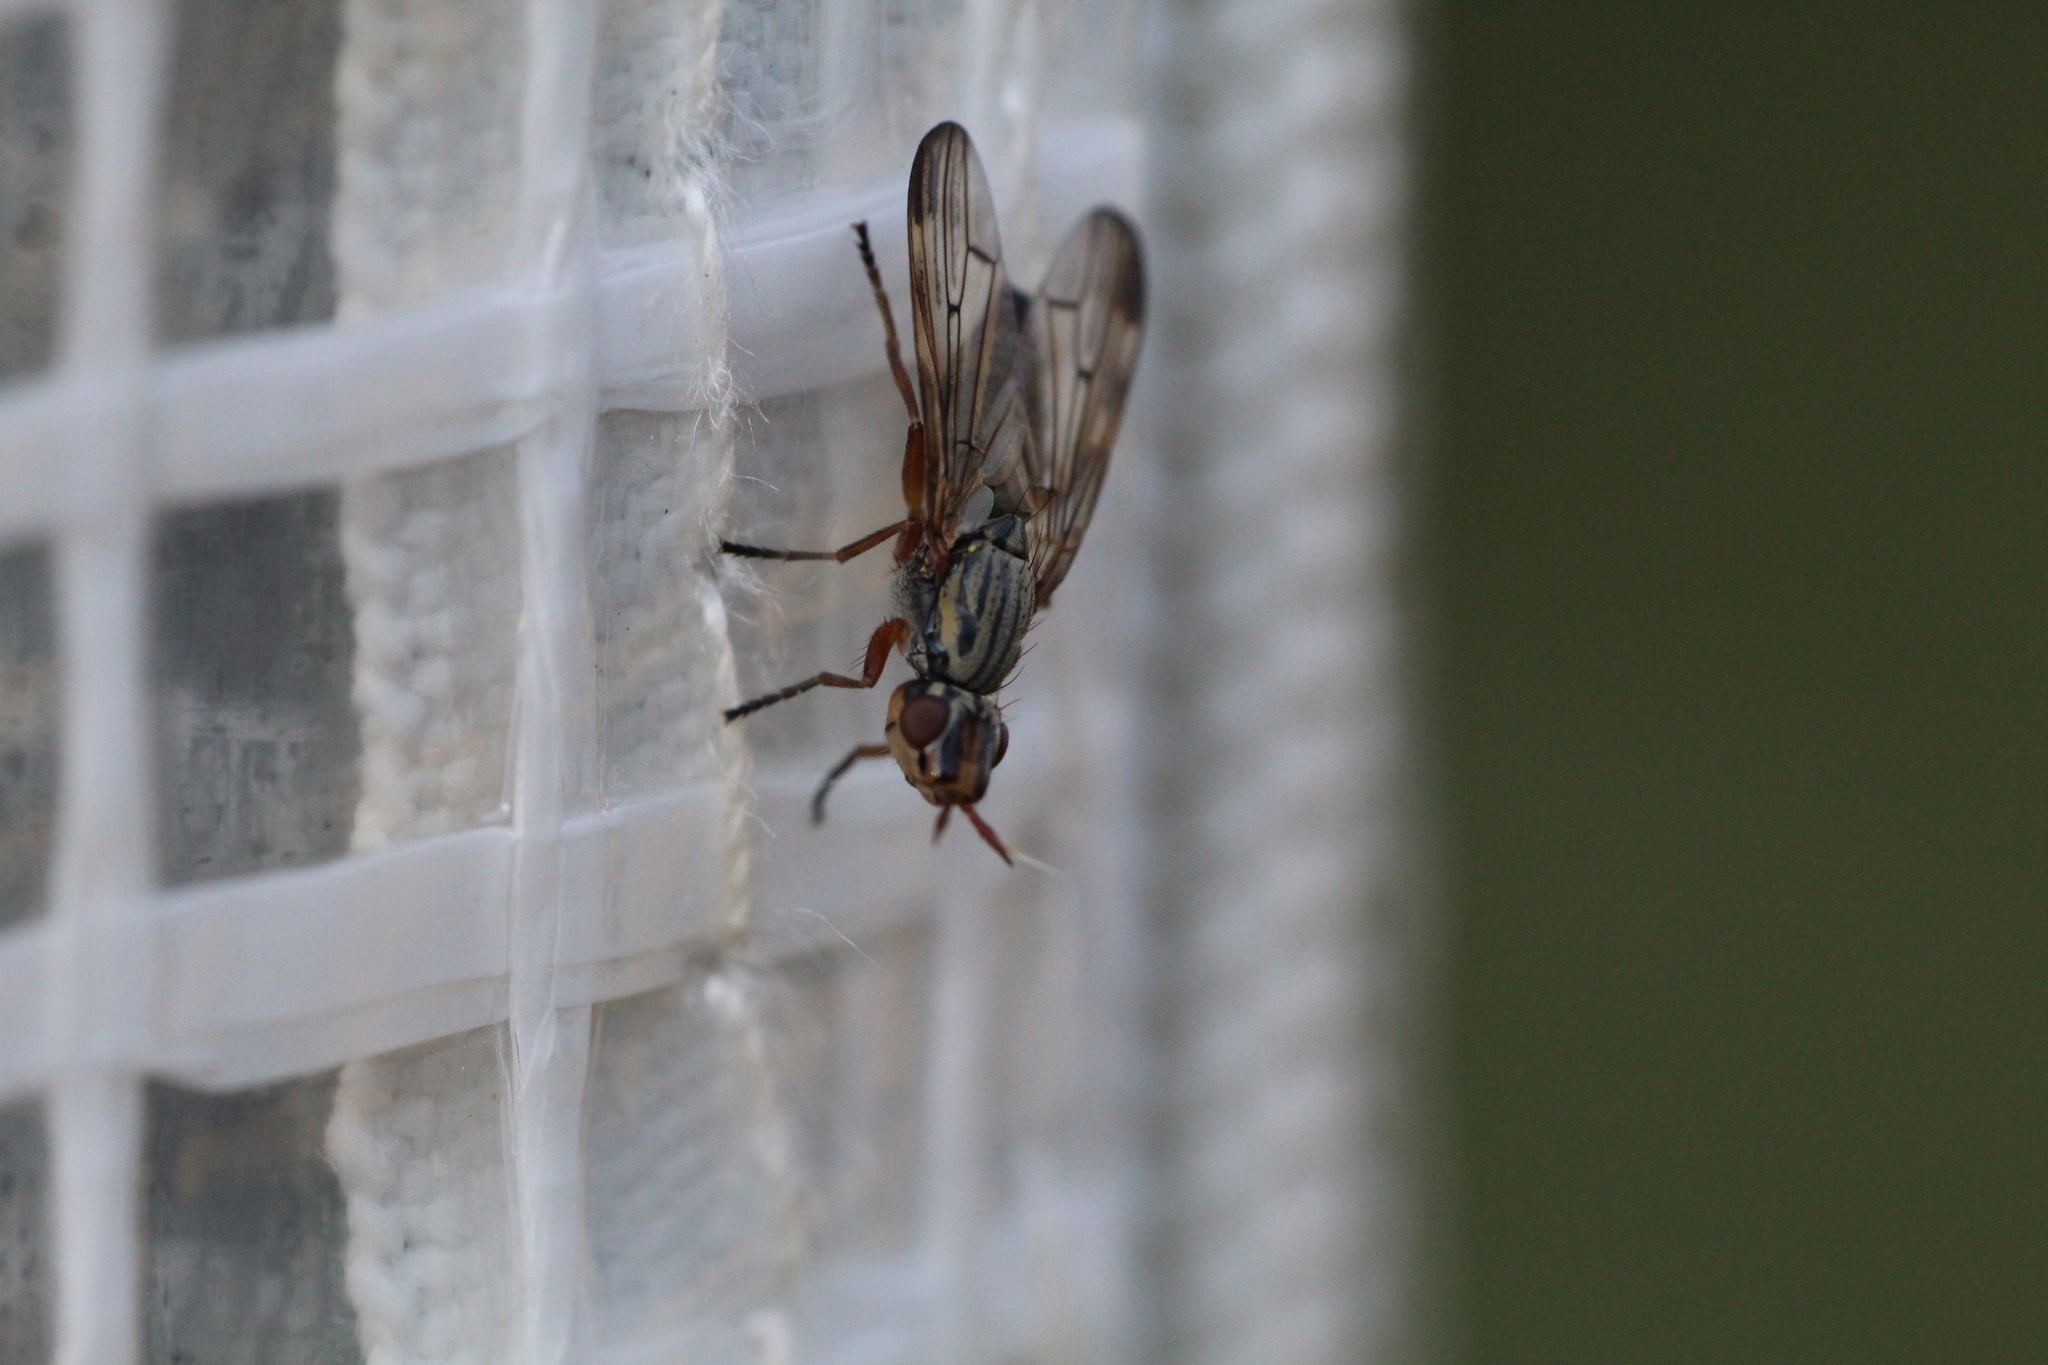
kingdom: Animalia
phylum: Arthropoda
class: Insecta
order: Diptera
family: Ulidiidae
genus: Dorycera
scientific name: Dorycera aquatica
